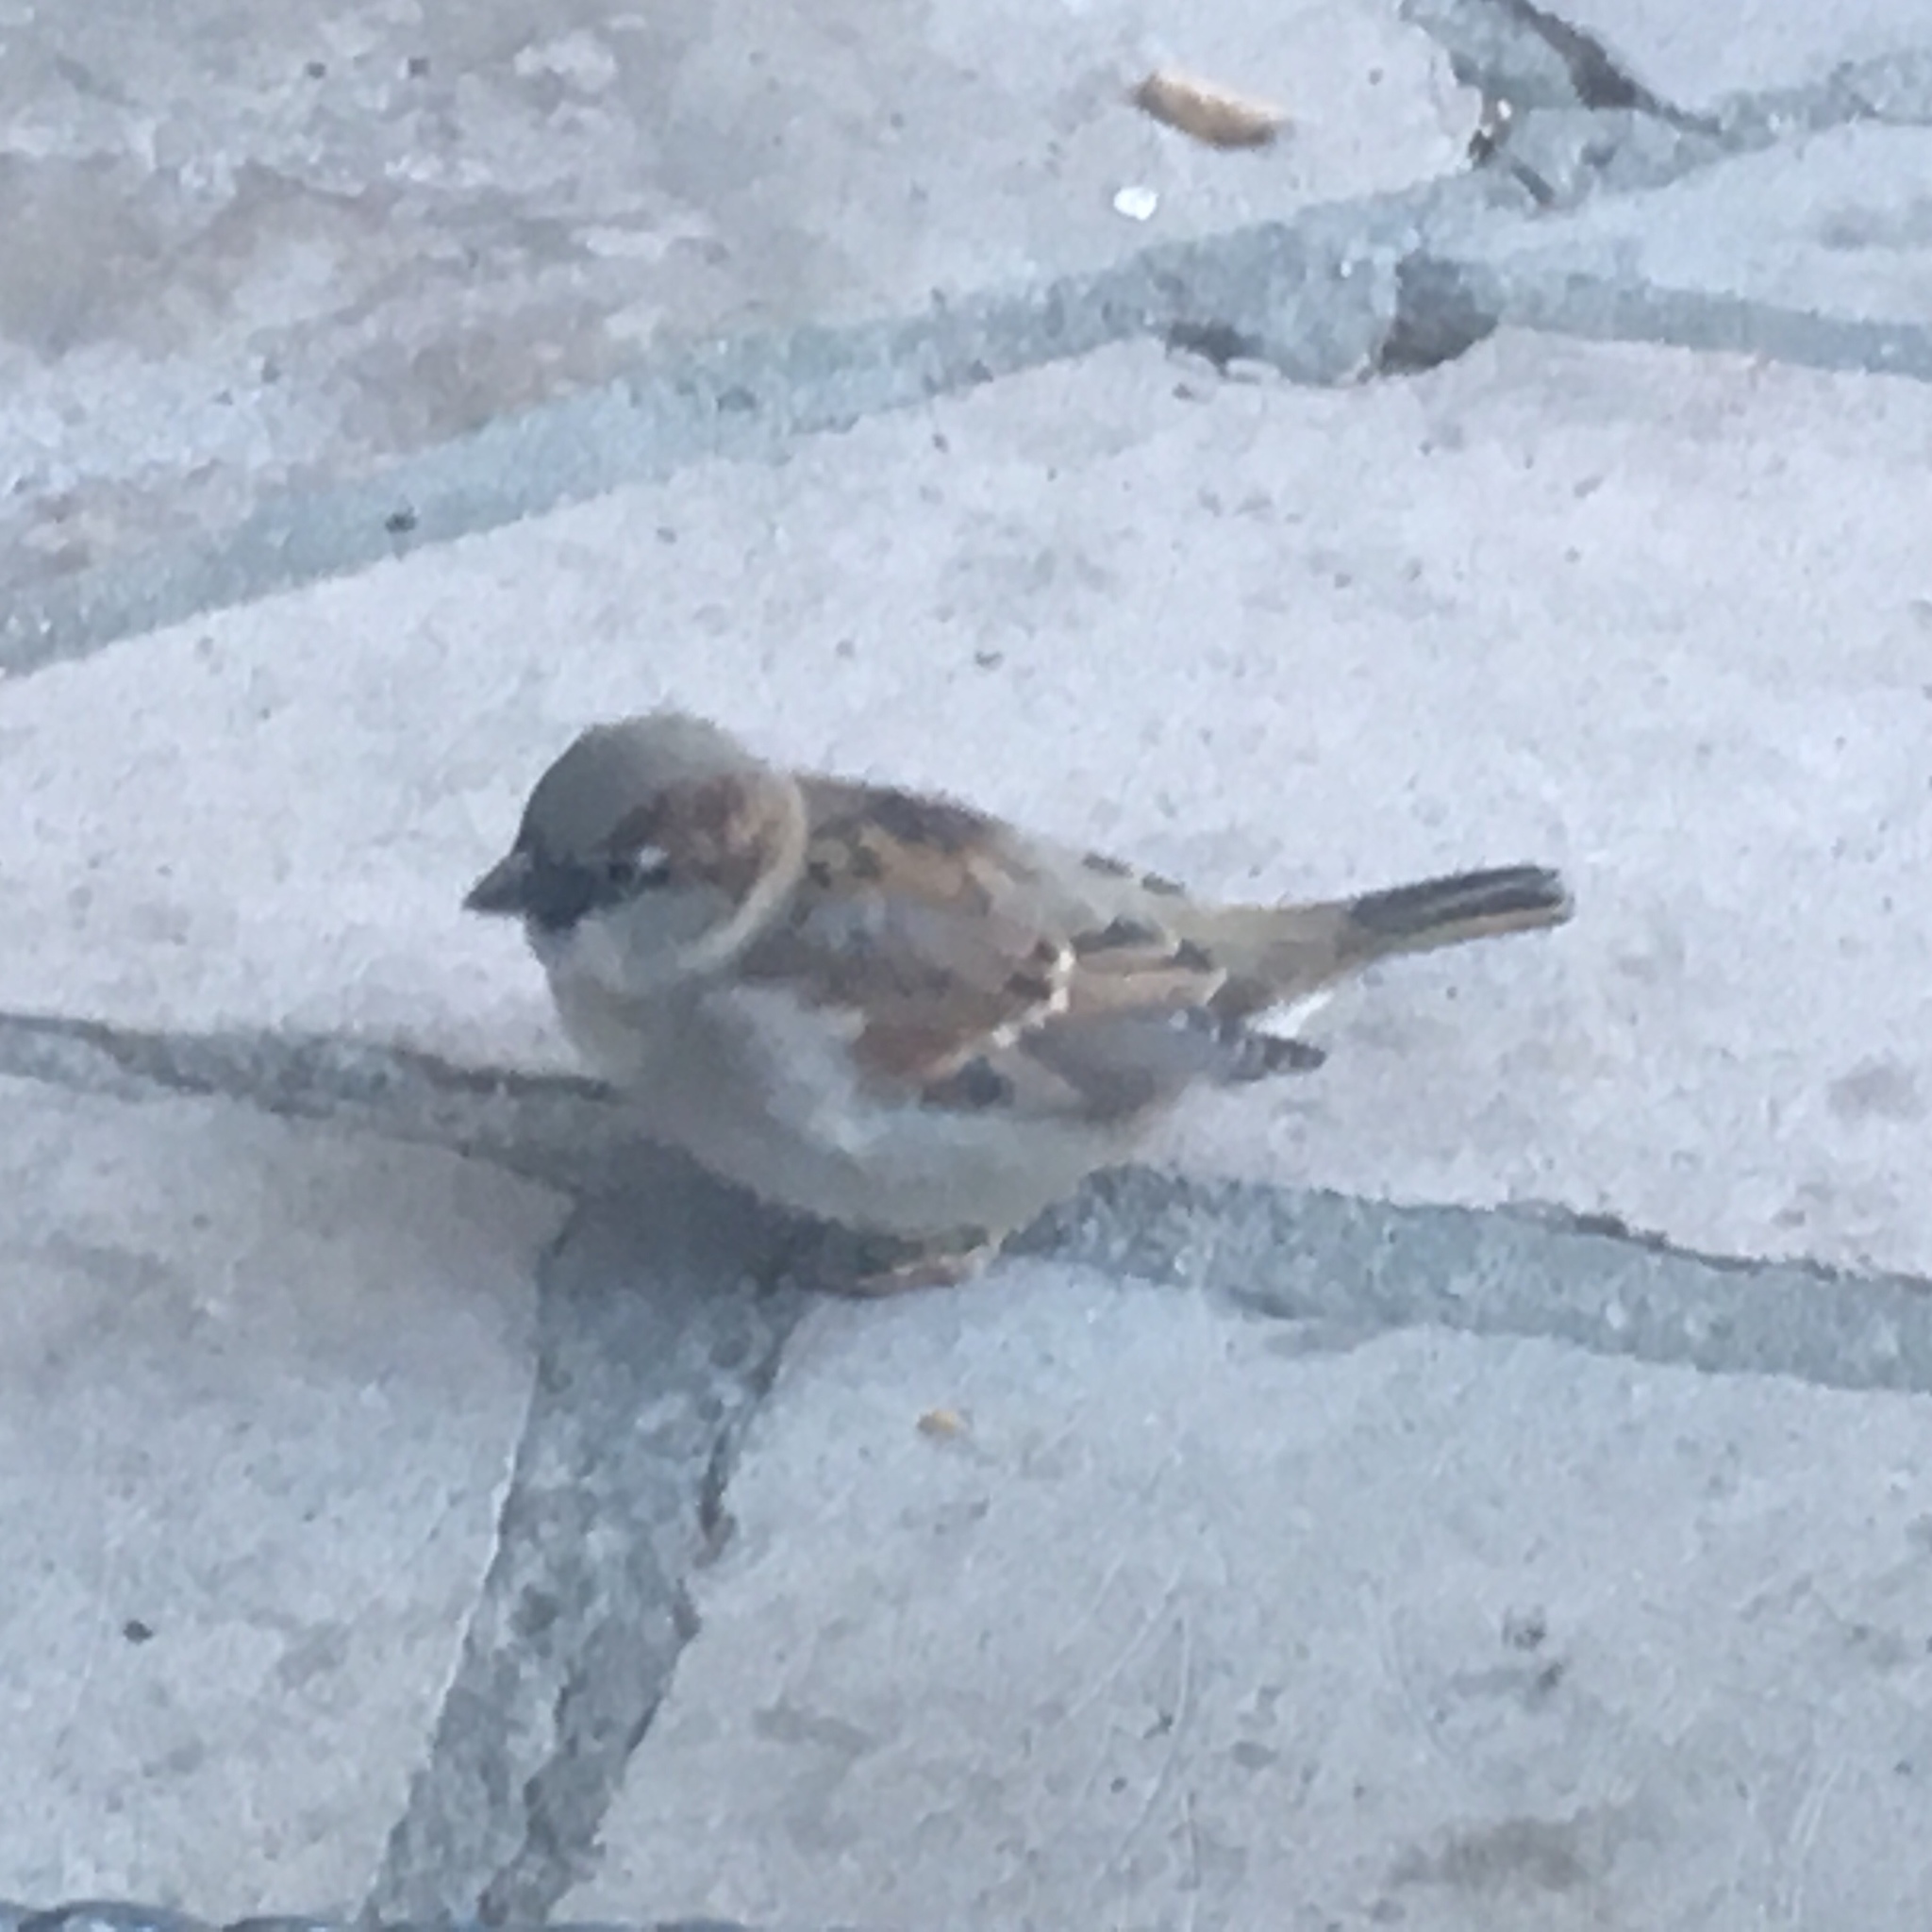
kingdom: Animalia
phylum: Chordata
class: Aves
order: Passeriformes
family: Passeridae
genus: Passer
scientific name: Passer domesticus
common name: House sparrow
